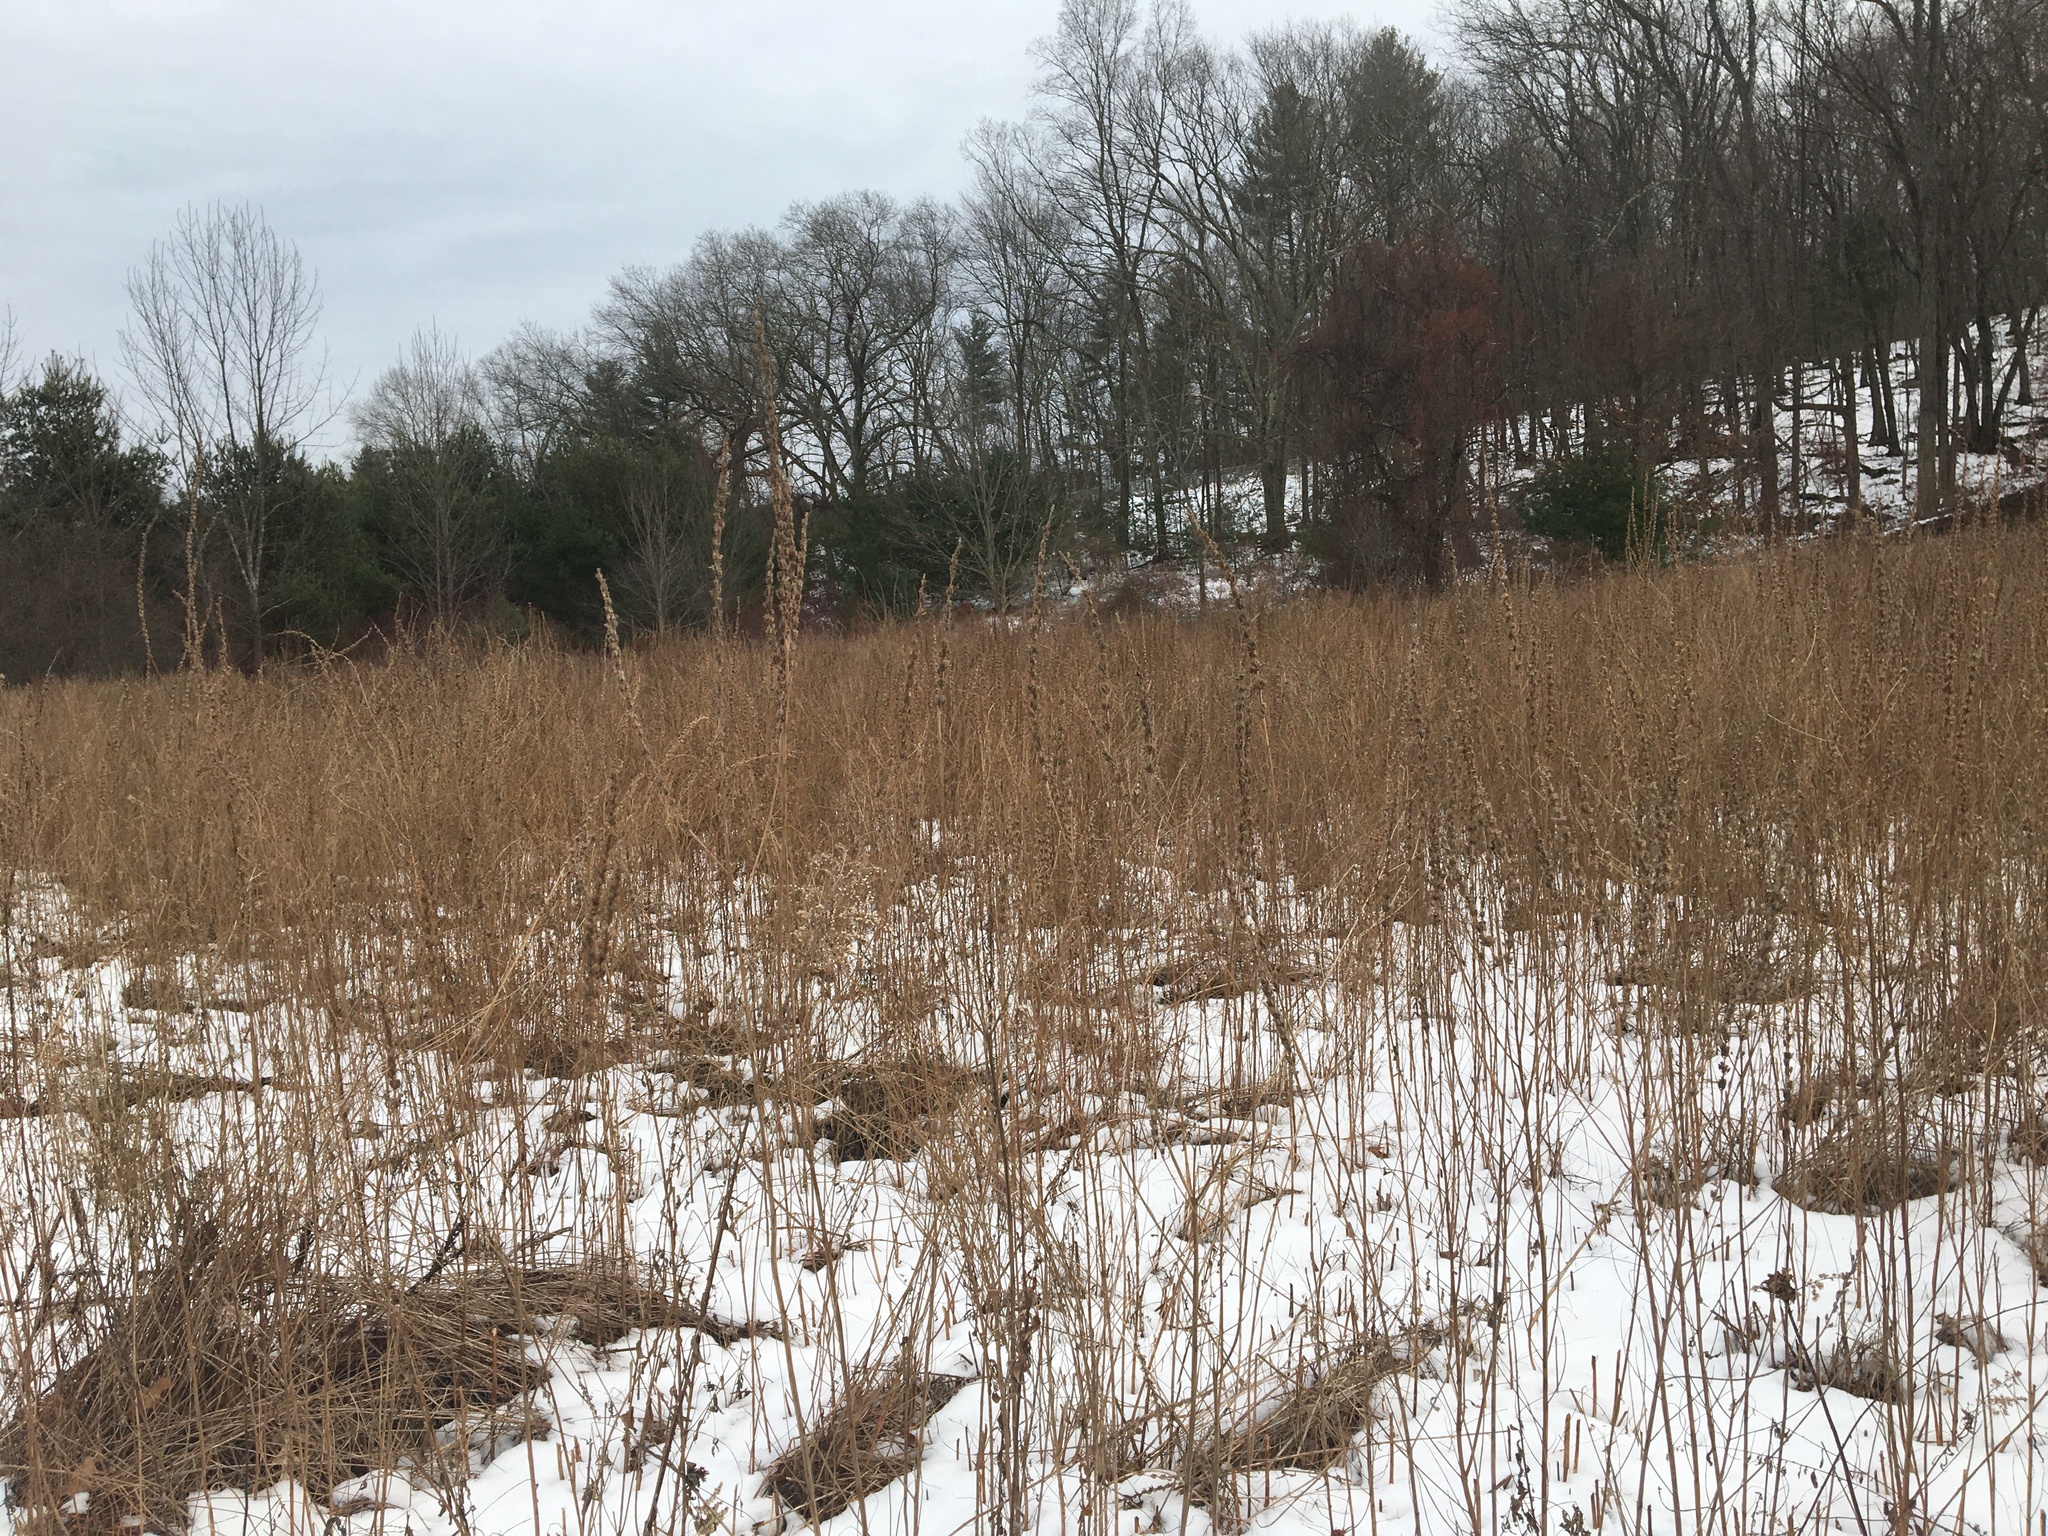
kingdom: Plantae
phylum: Tracheophyta
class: Magnoliopsida
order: Myrtales
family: Lythraceae
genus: Lythrum
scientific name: Lythrum salicaria
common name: Purple loosestrife
